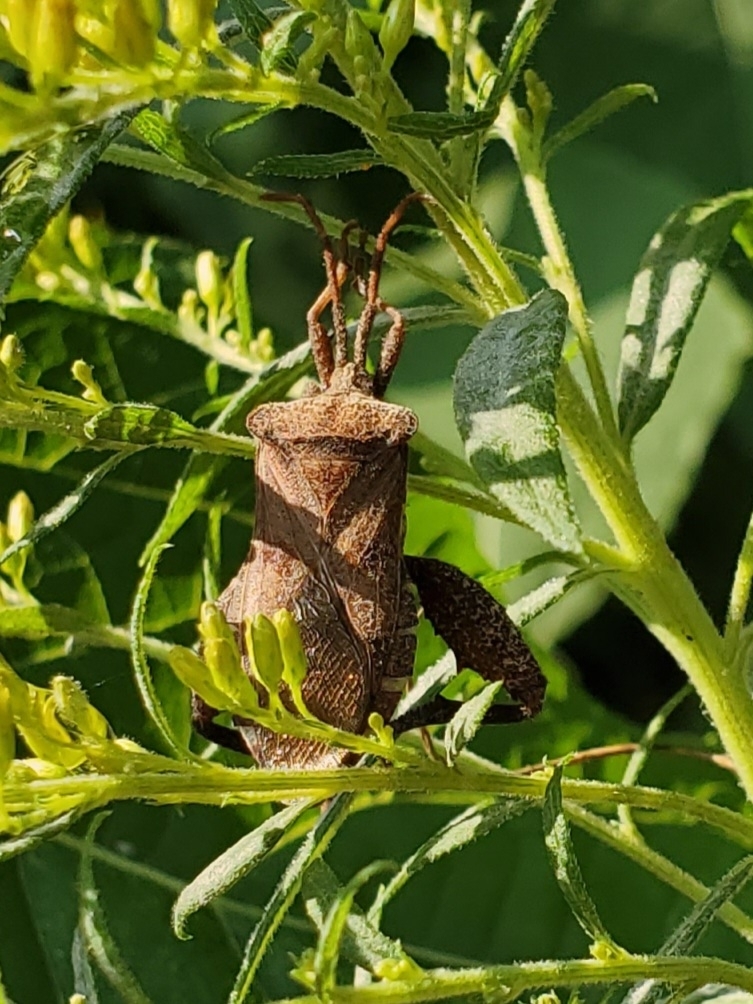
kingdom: Animalia
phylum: Arthropoda
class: Insecta
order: Hemiptera
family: Coreidae
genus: Piezogaster
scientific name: Piezogaster calcarator
